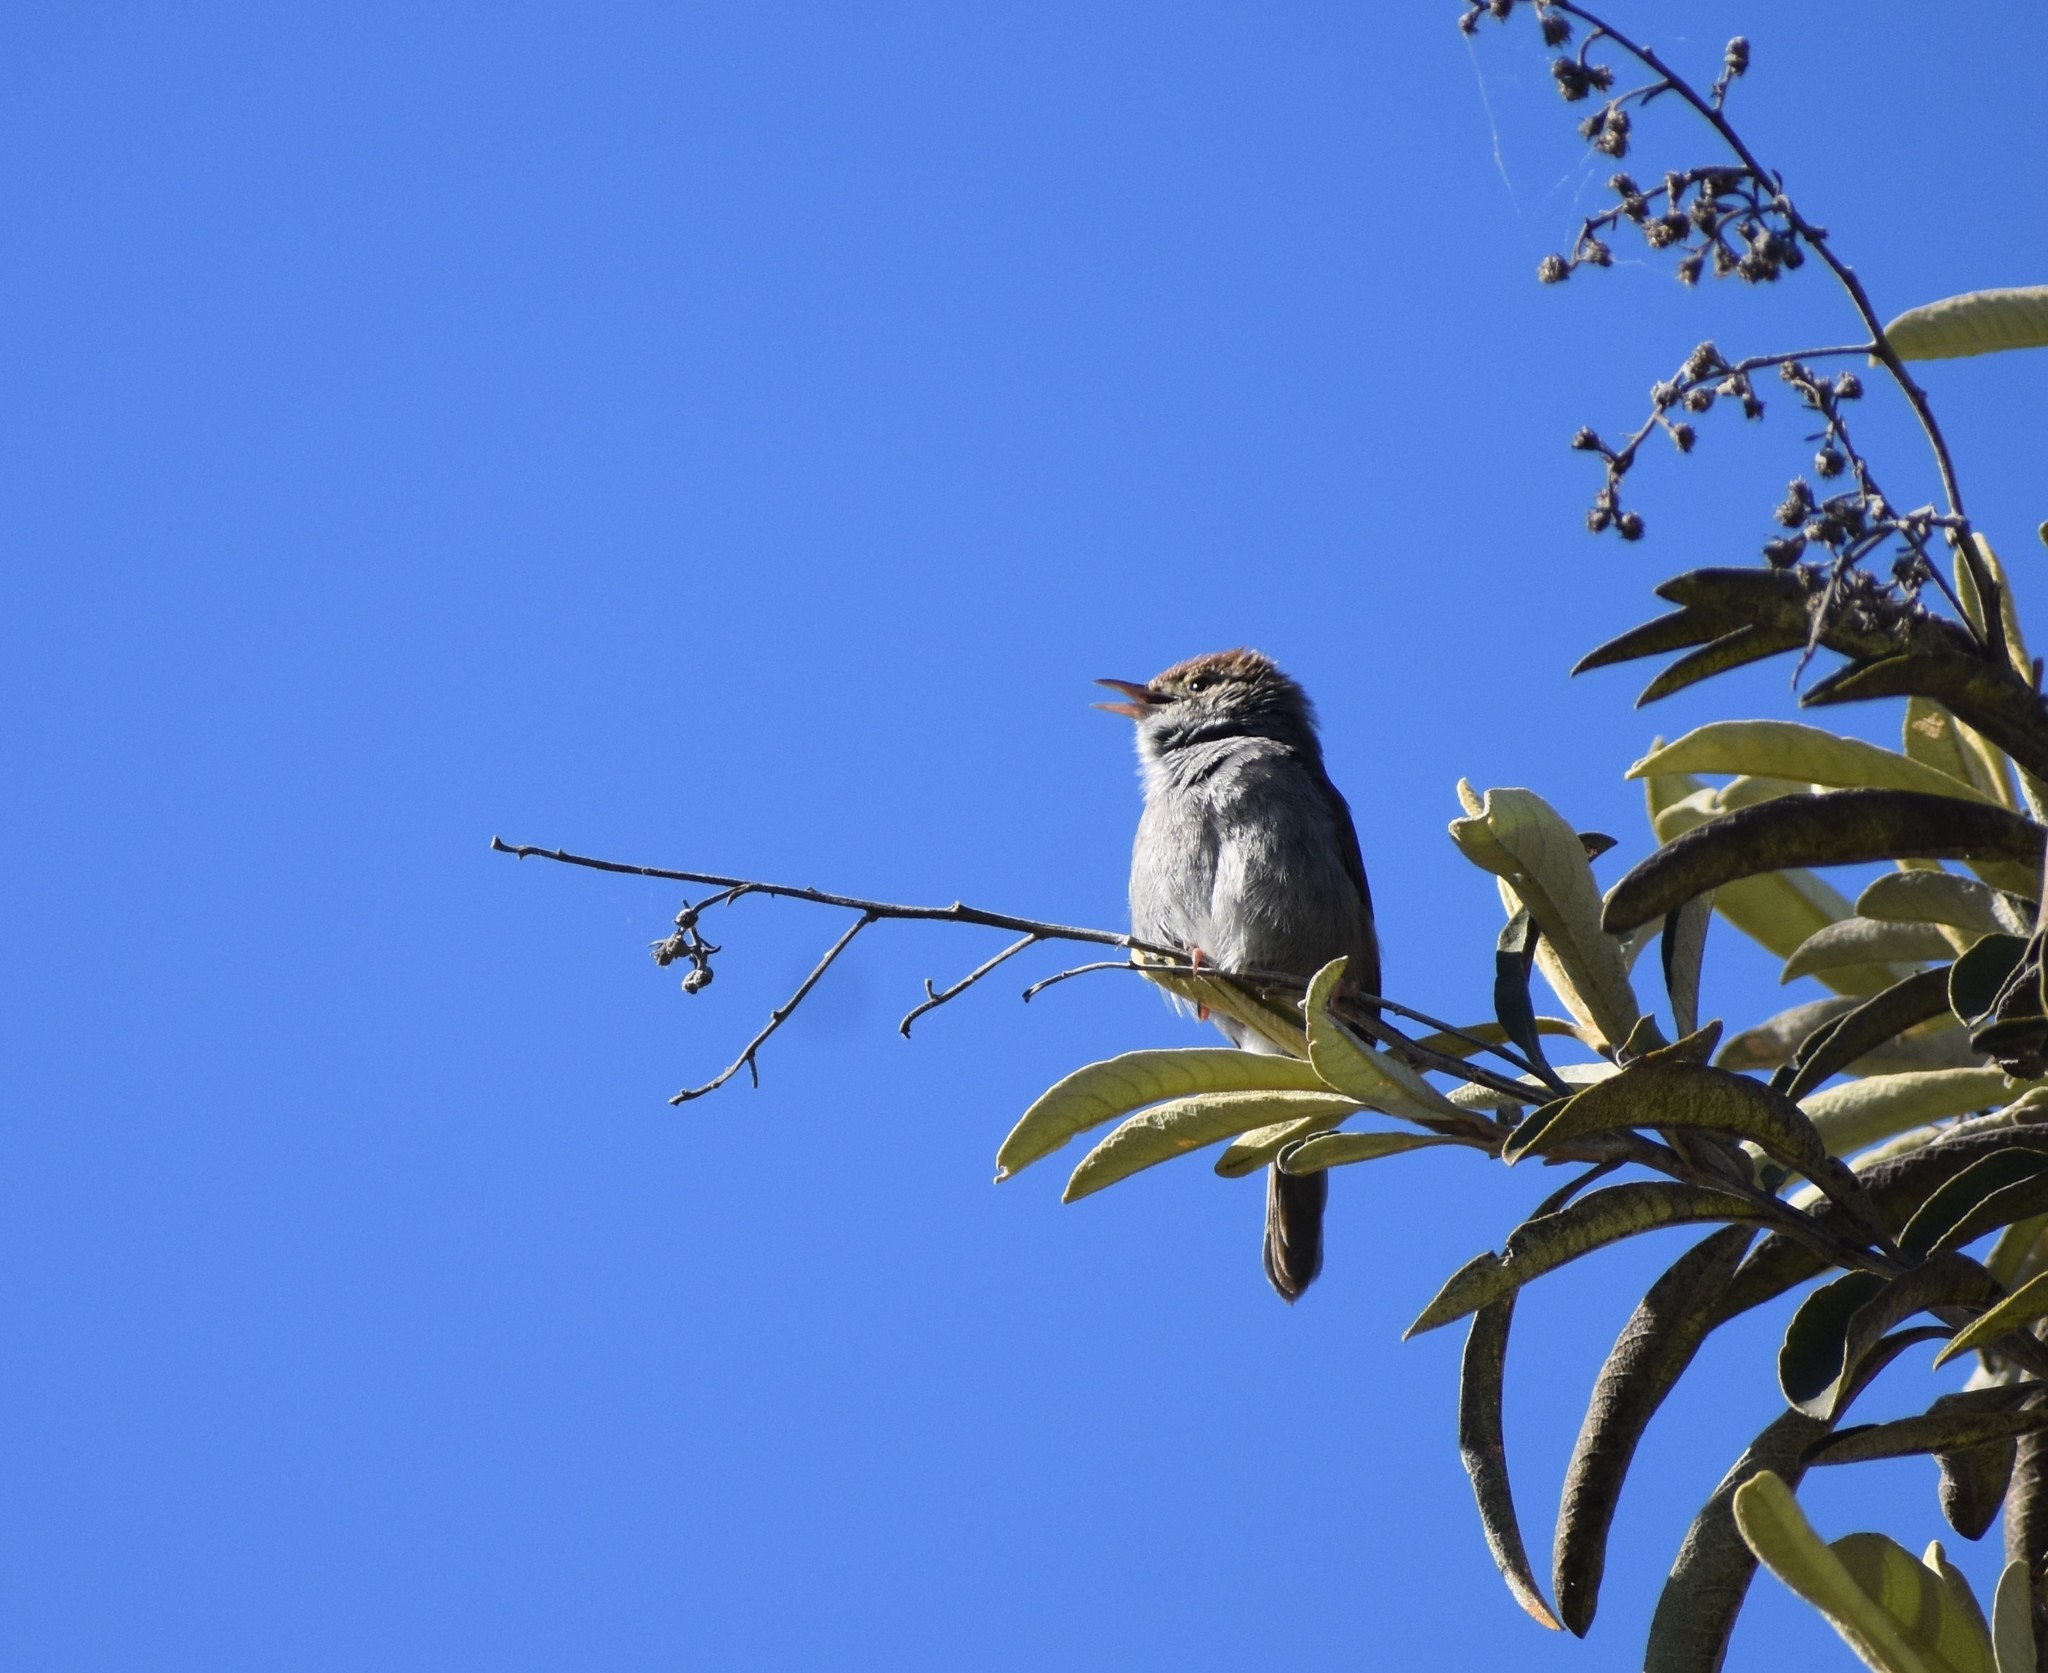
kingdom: Animalia
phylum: Chordata
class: Aves
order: Passeriformes
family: Cisticolidae
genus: Cisticola
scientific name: Cisticola fulvicapilla
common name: Neddicky
